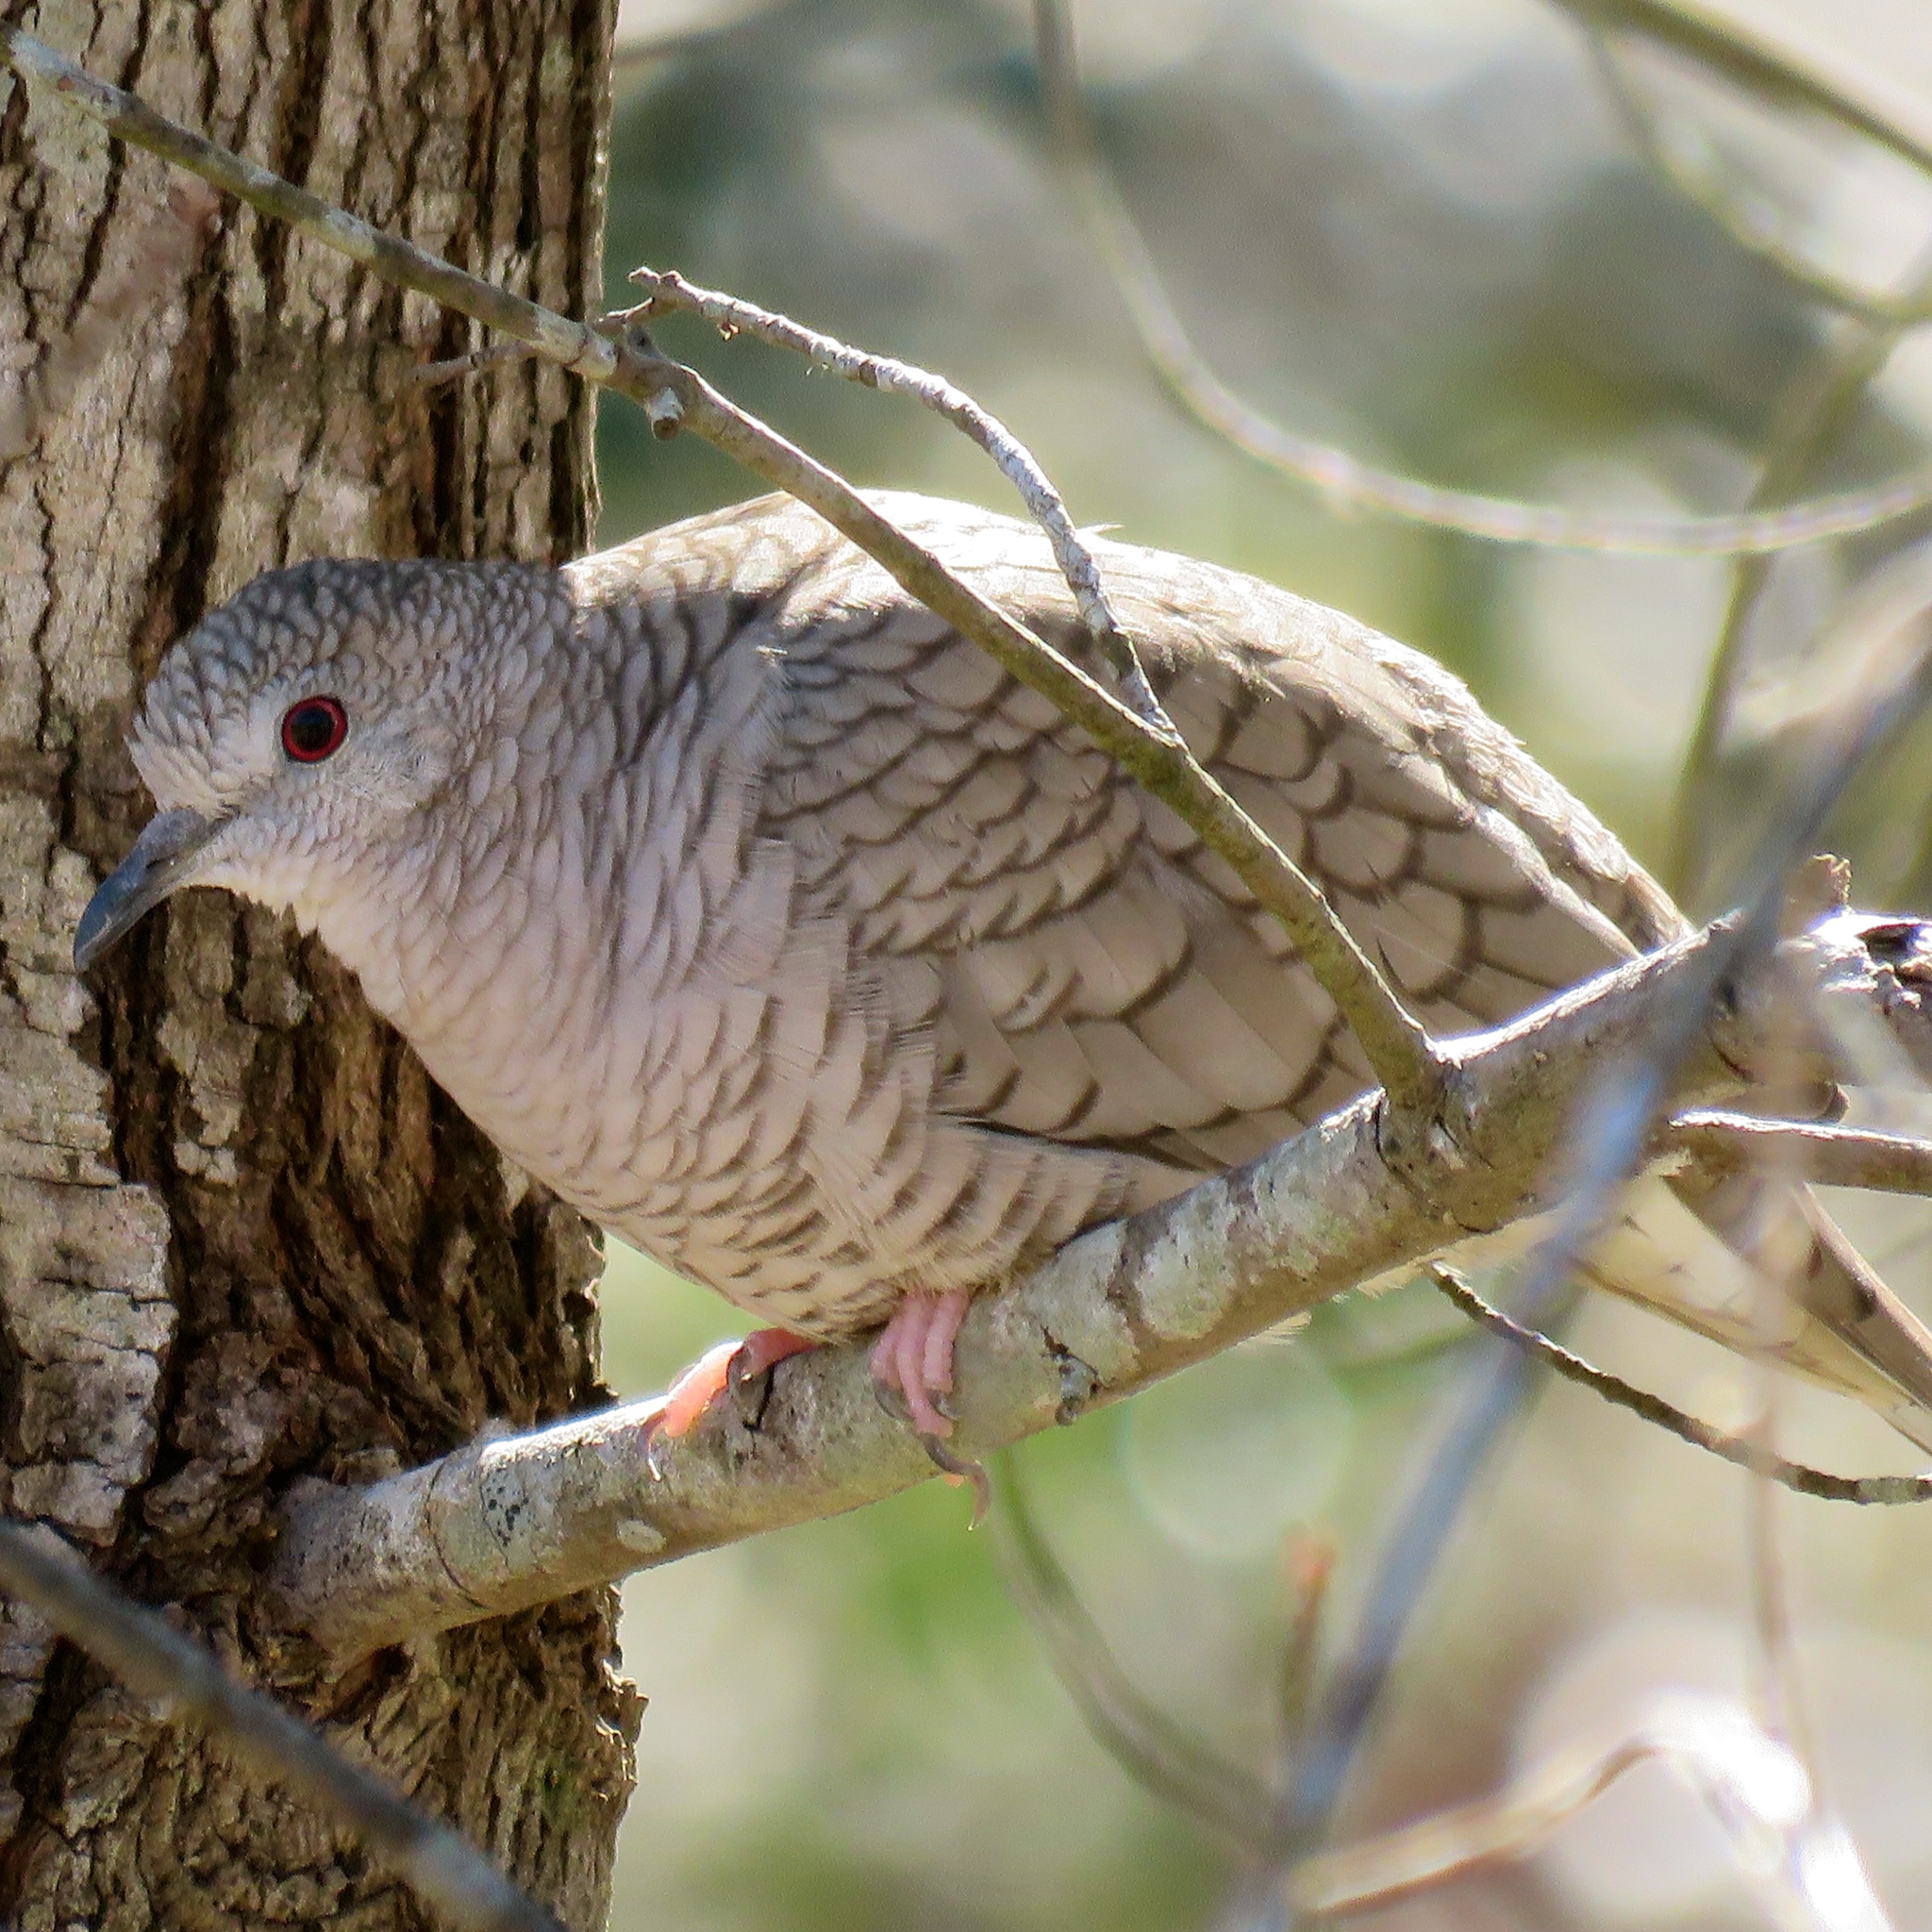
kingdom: Animalia
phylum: Chordata
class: Aves
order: Columbiformes
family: Columbidae
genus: Columbina
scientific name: Columbina inca
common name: Inca dove
